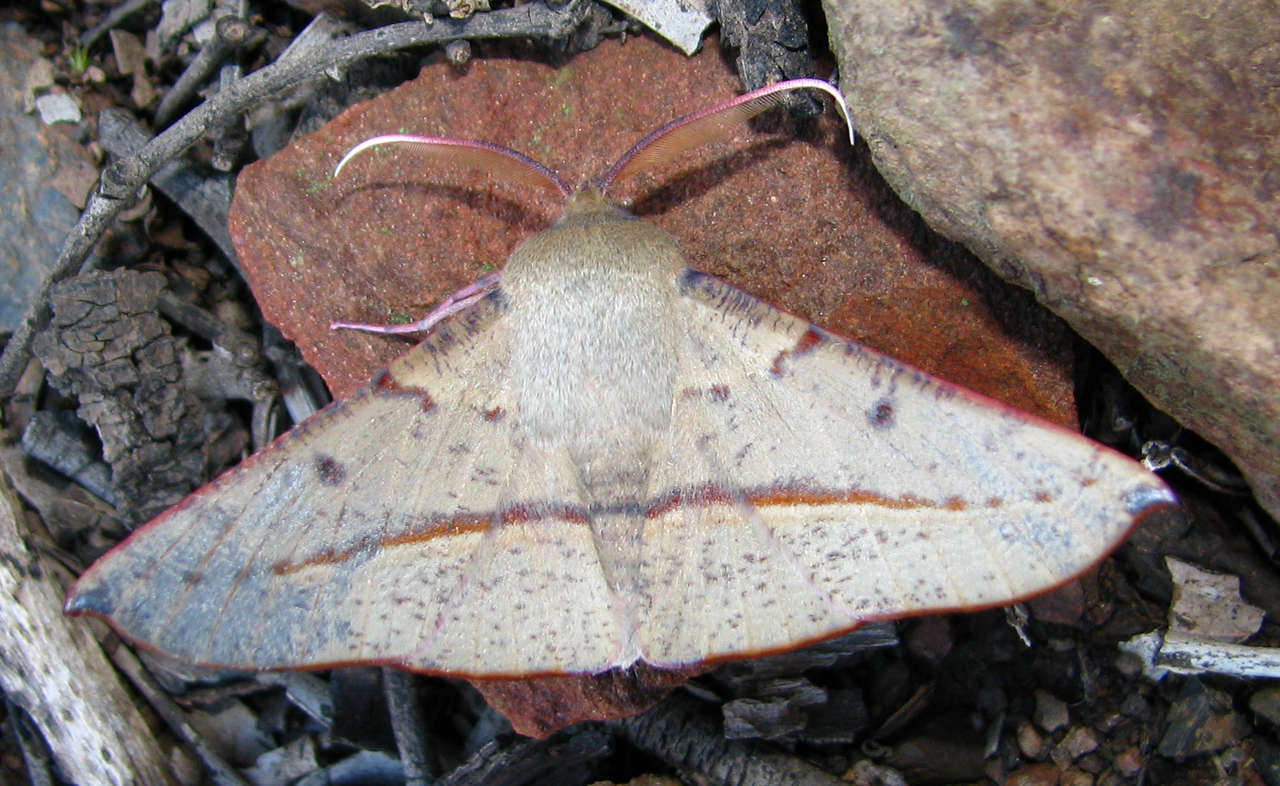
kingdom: Animalia
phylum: Arthropoda
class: Insecta
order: Lepidoptera
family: Geometridae
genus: Oenochroma
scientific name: Oenochroma vinaria
